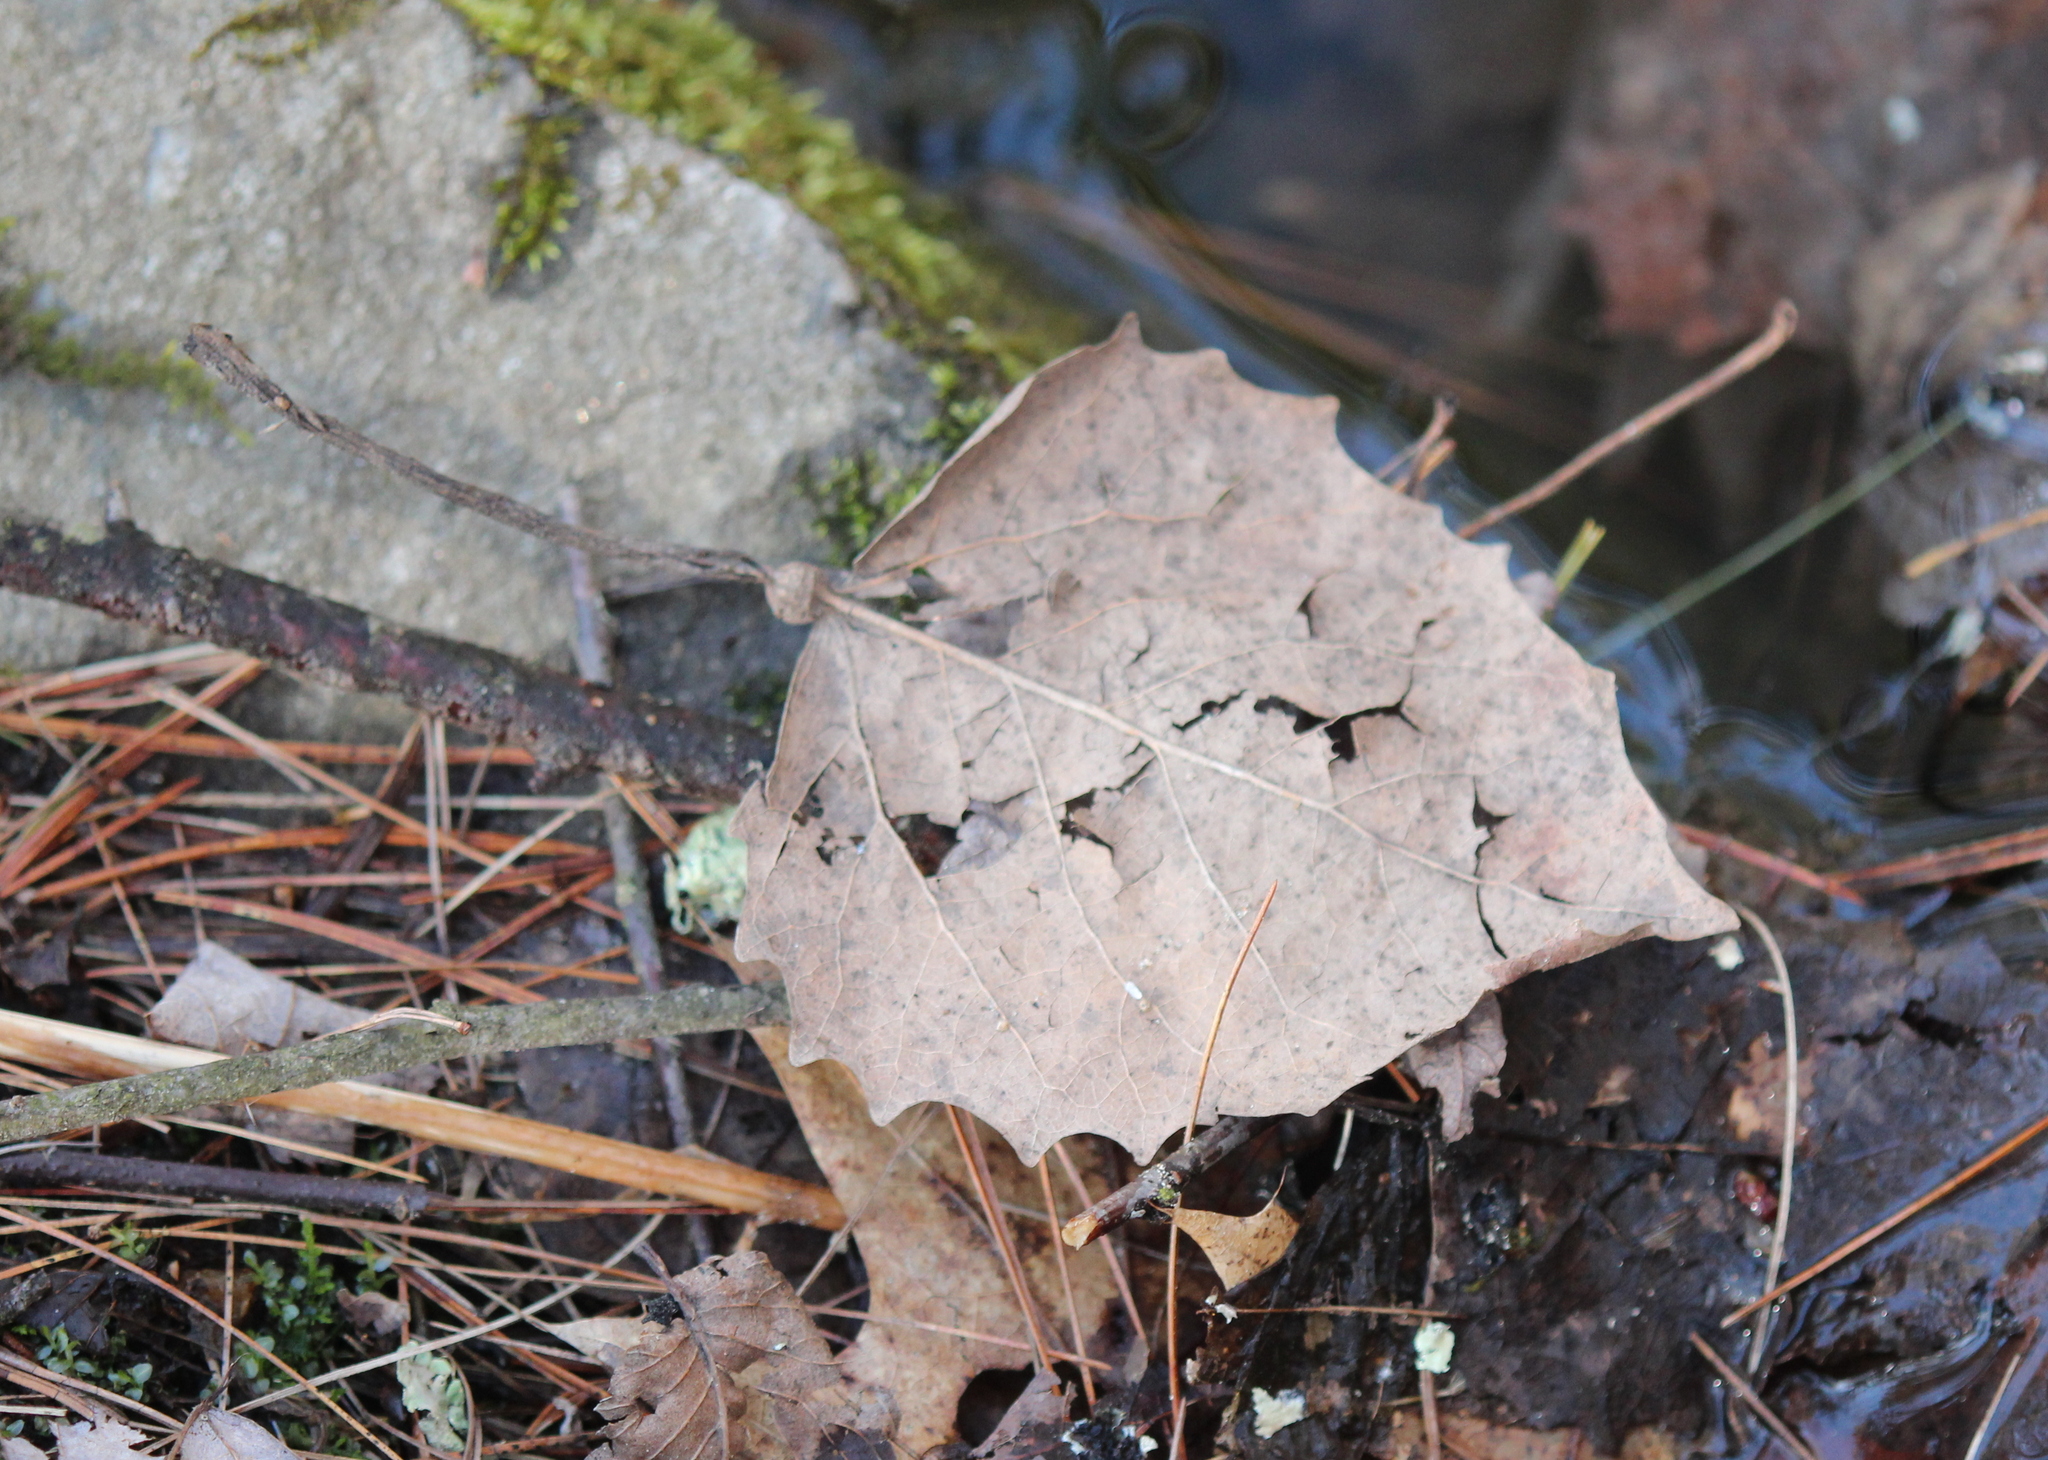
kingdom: Plantae
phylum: Tracheophyta
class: Magnoliopsida
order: Malpighiales
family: Salicaceae
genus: Populus
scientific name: Populus grandidentata
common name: Bigtooth aspen
